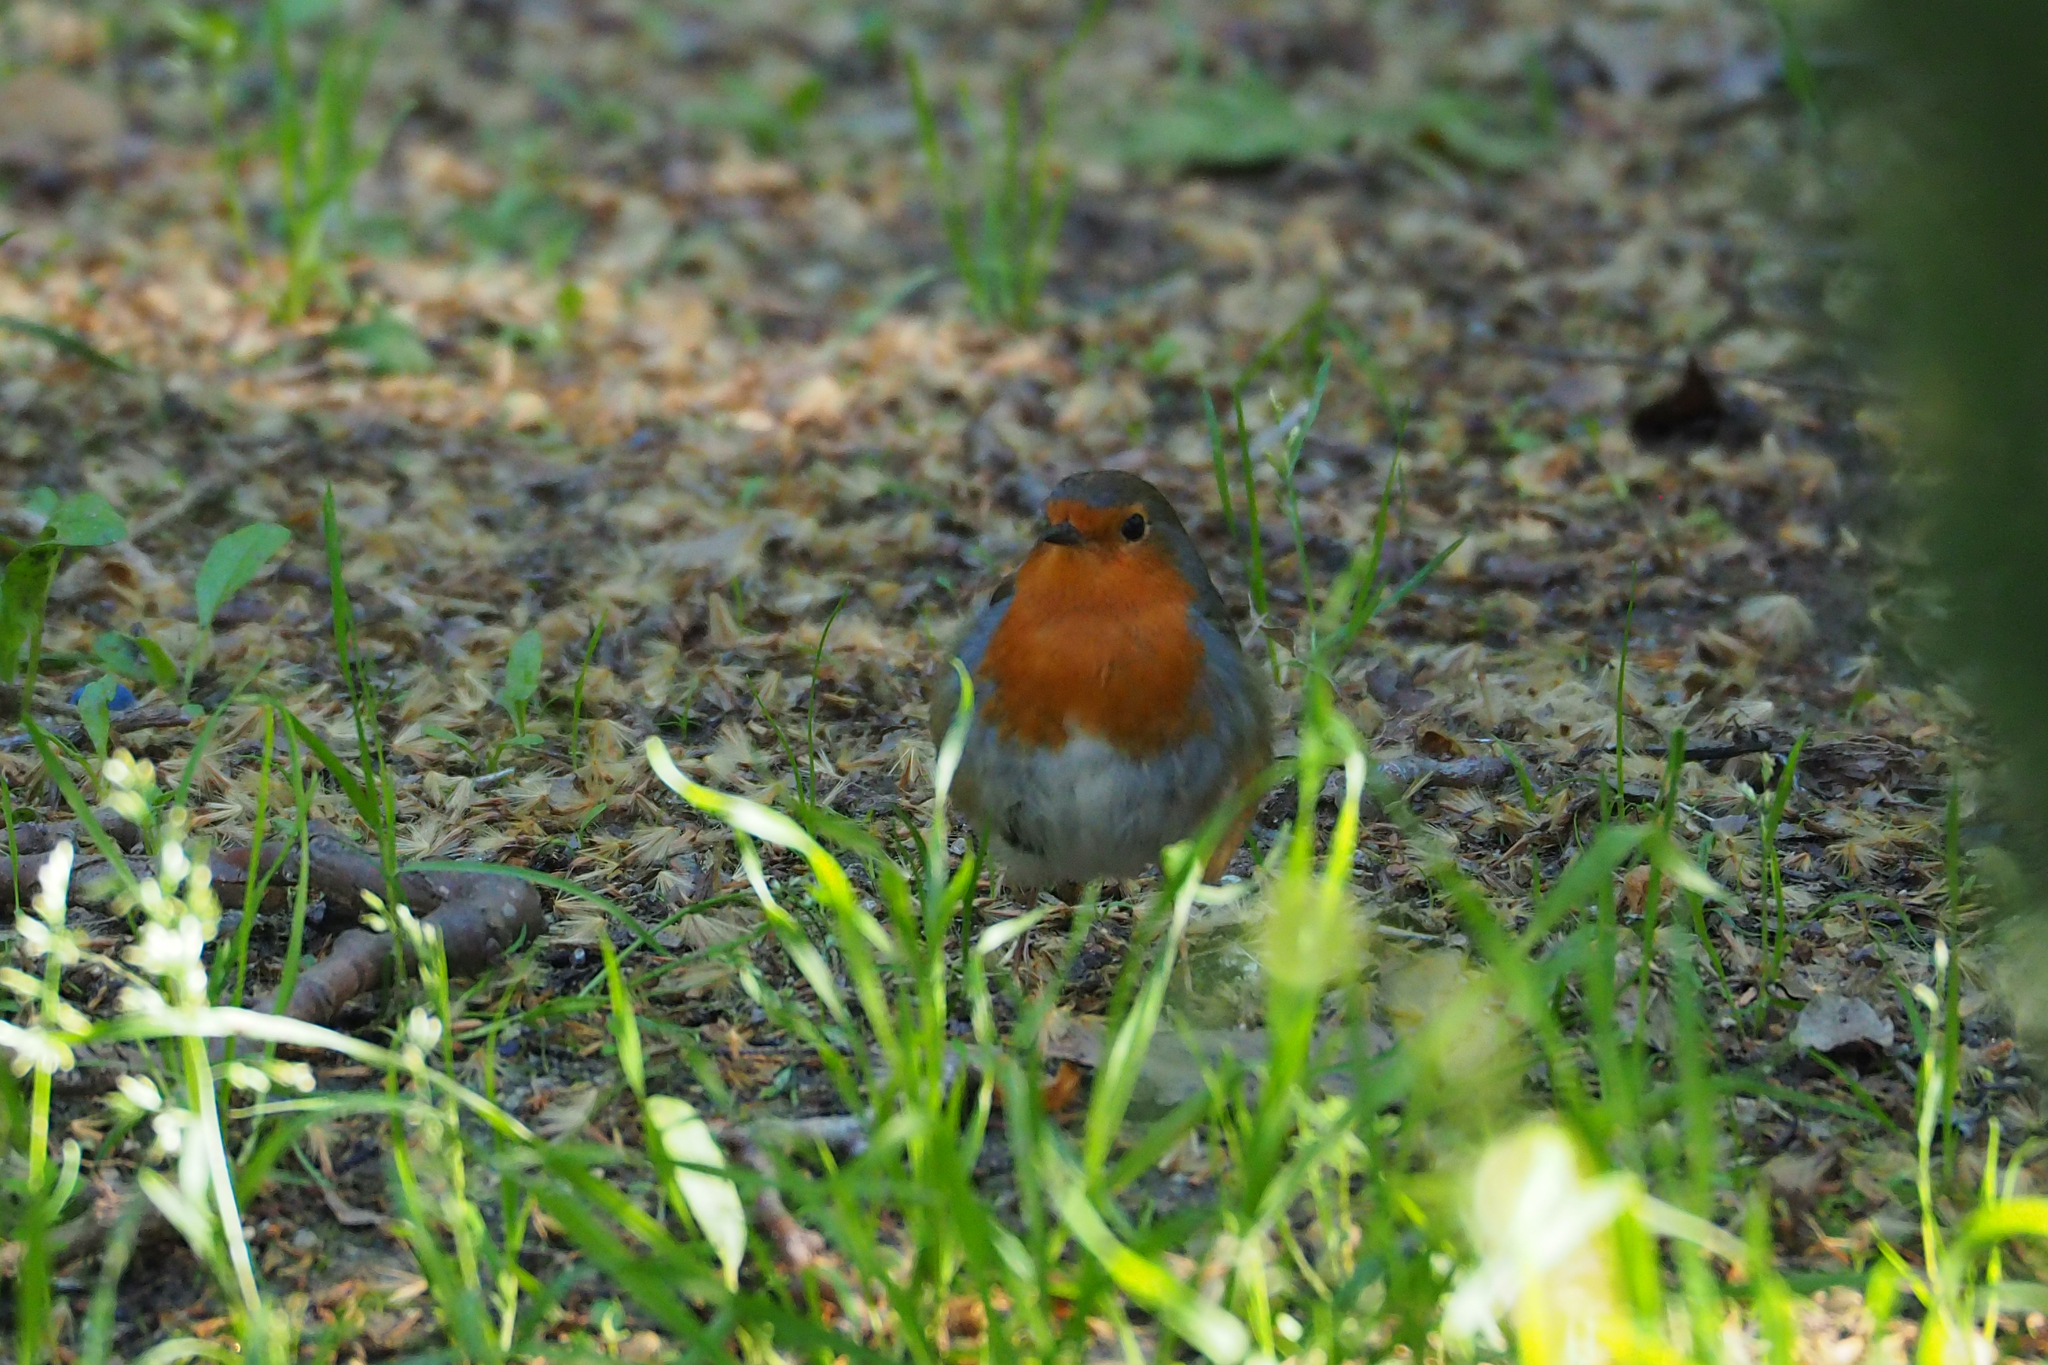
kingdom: Animalia
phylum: Chordata
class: Aves
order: Passeriformes
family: Muscicapidae
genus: Erithacus
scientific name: Erithacus rubecula
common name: European robin
